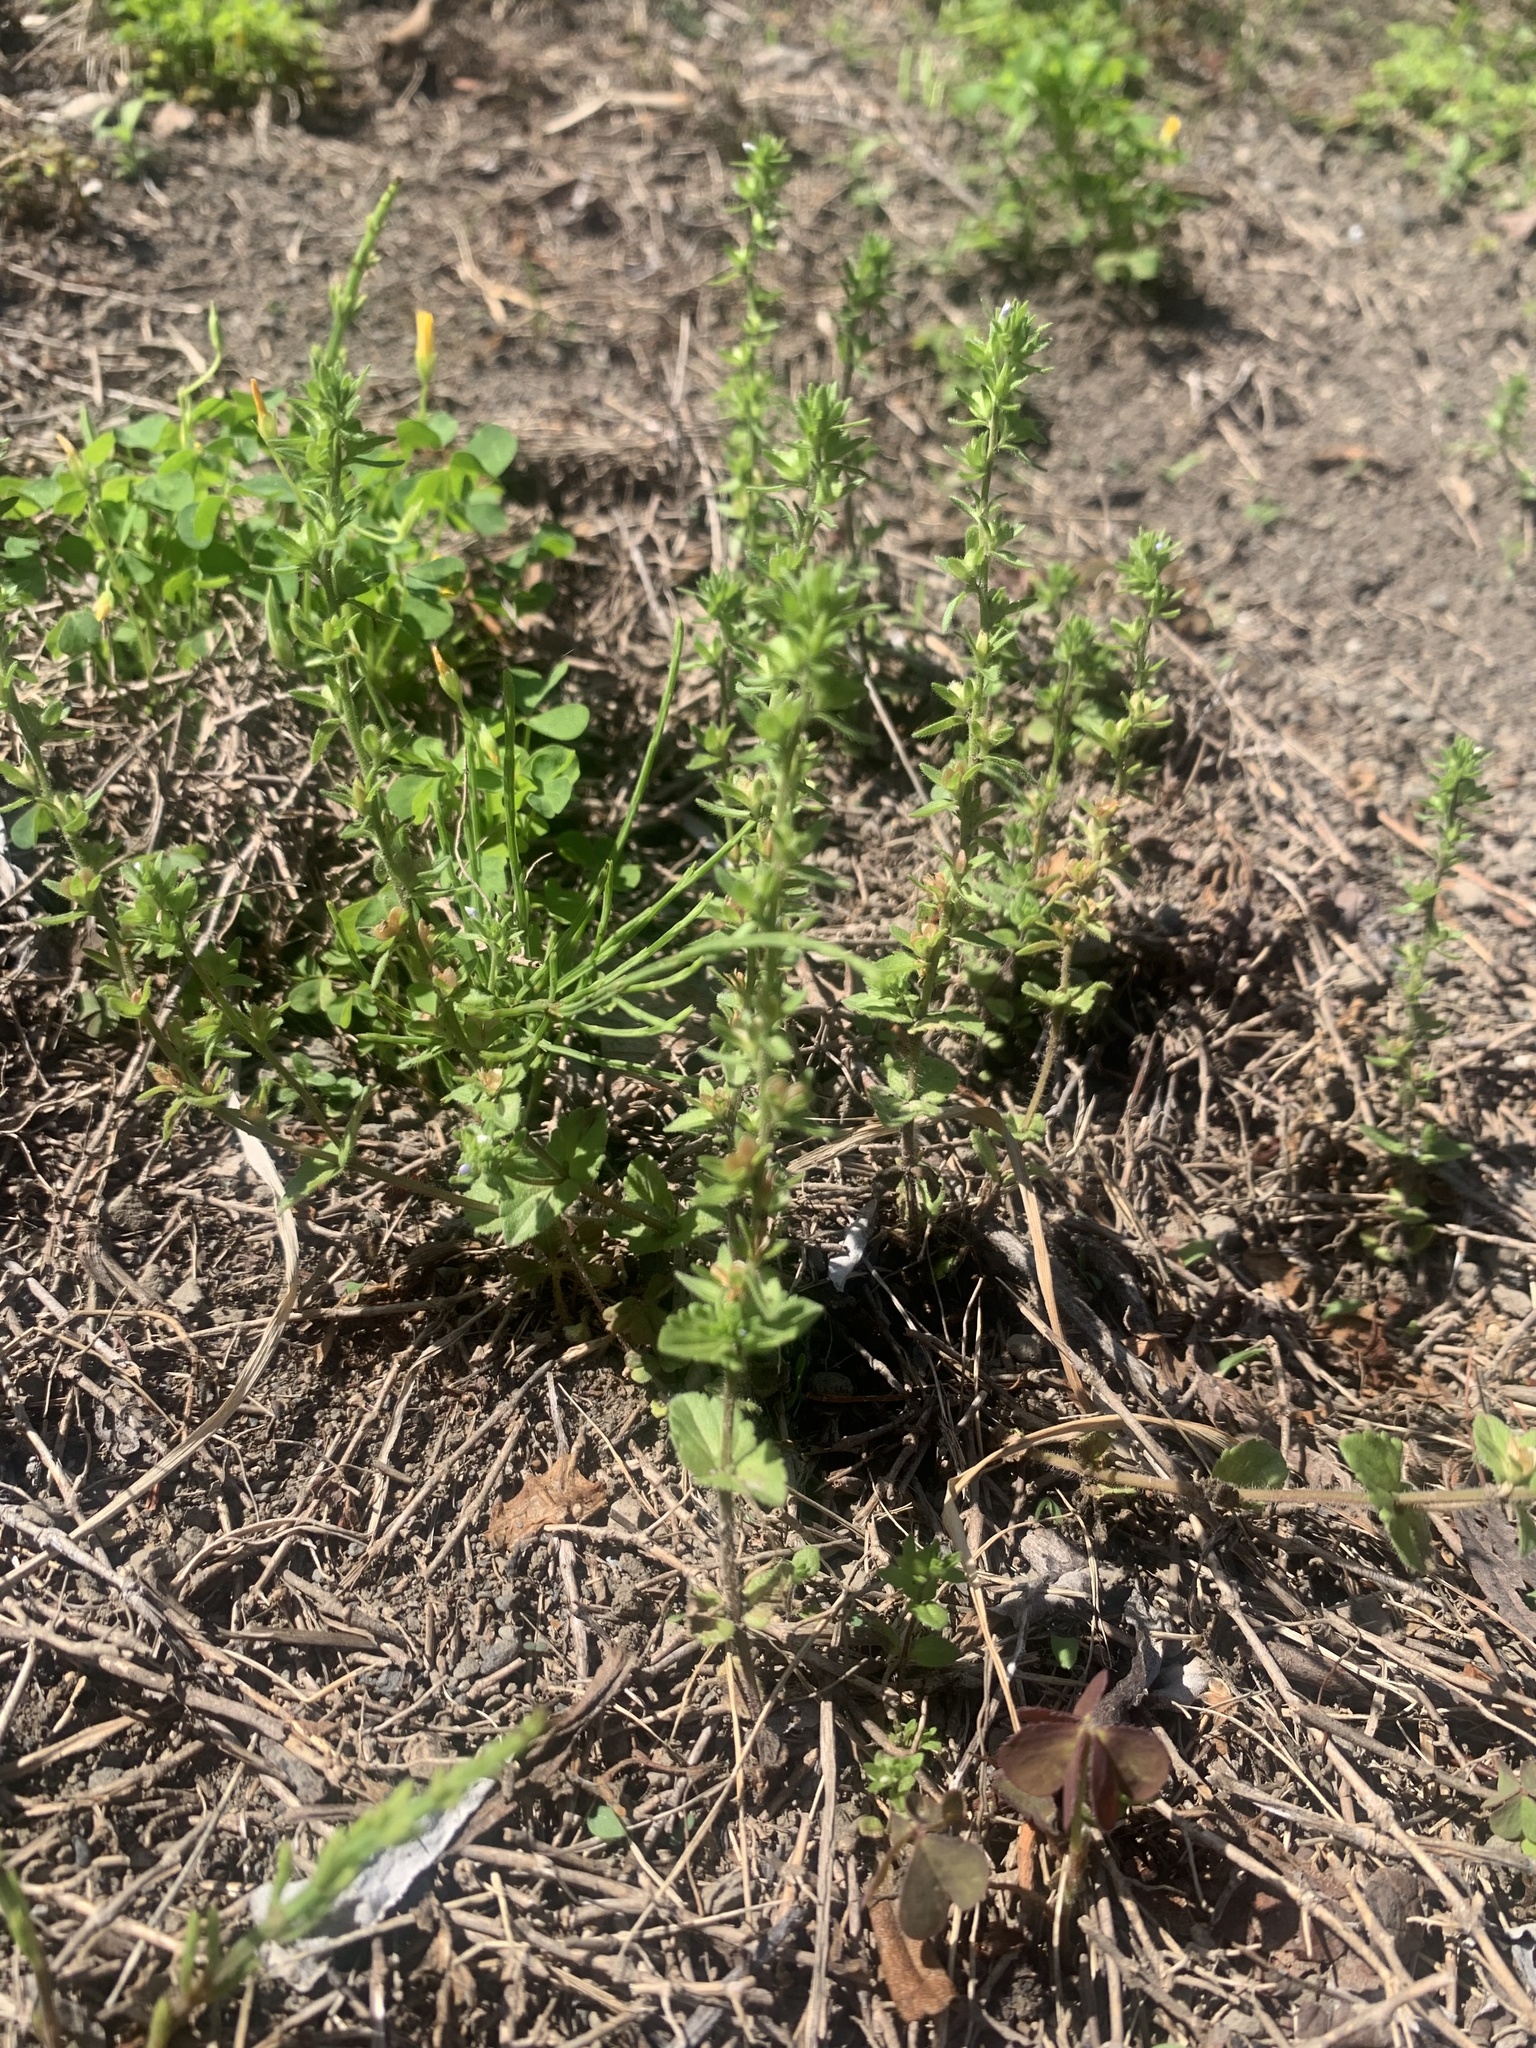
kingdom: Plantae
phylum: Tracheophyta
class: Magnoliopsida
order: Lamiales
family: Plantaginaceae
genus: Veronica
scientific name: Veronica arvensis
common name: Corn speedwell
